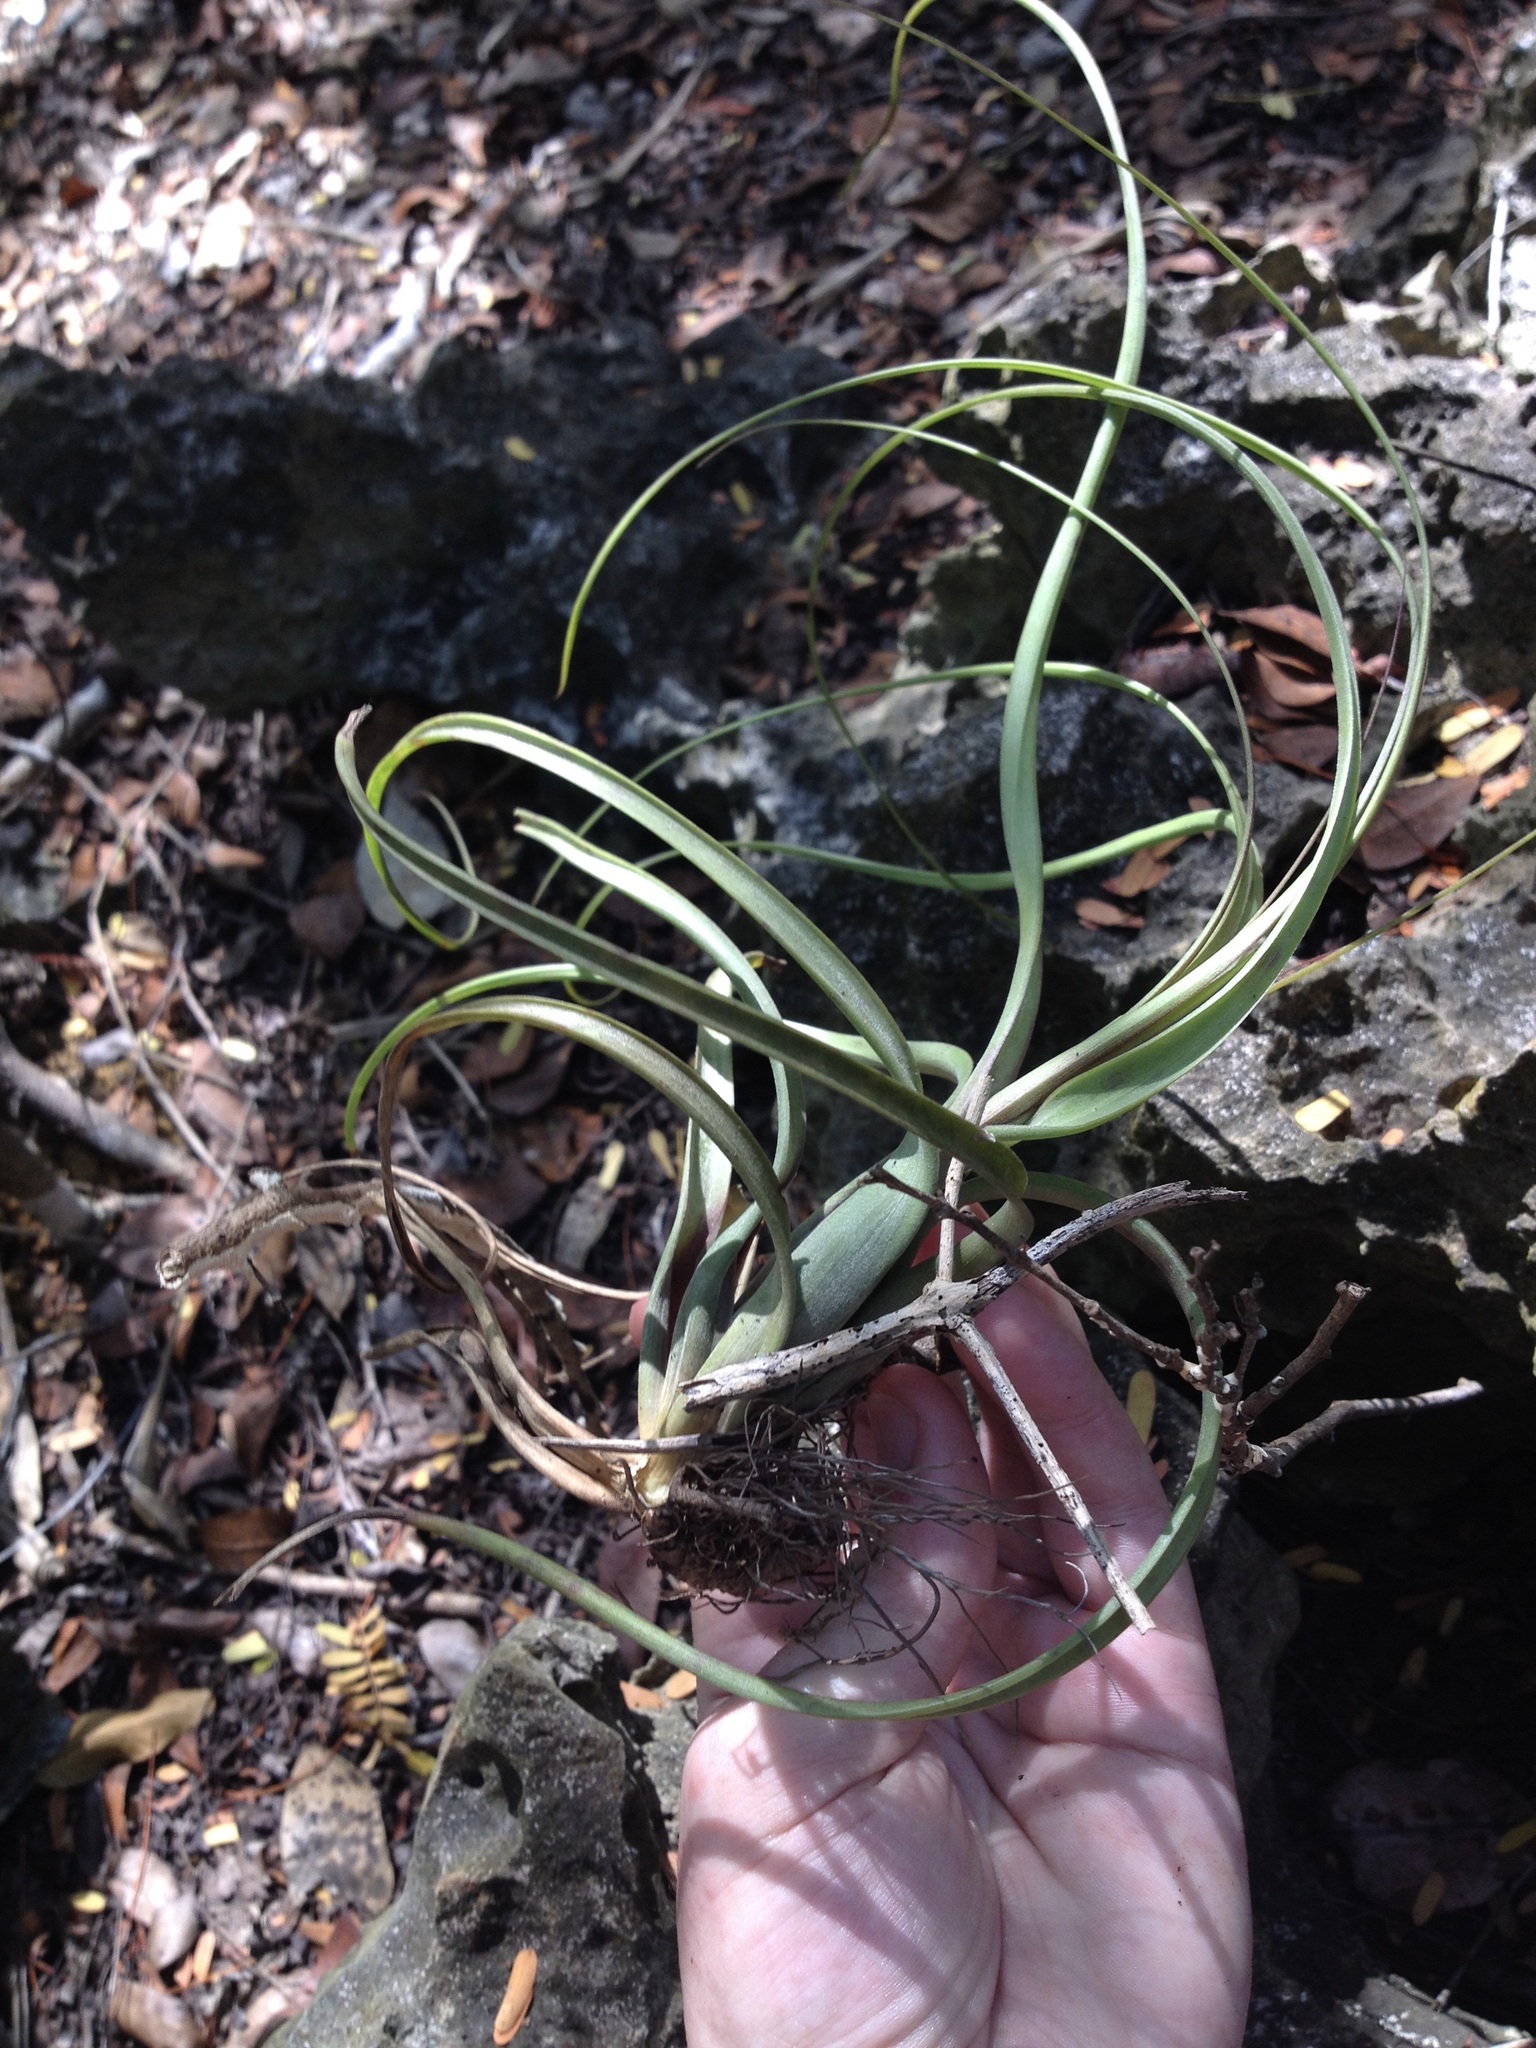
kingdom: Plantae
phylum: Tracheophyta
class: Liliopsida
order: Poales
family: Bromeliaceae
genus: Tillandsia
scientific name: Tillandsia balbisiana
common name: Northern needleleaf
